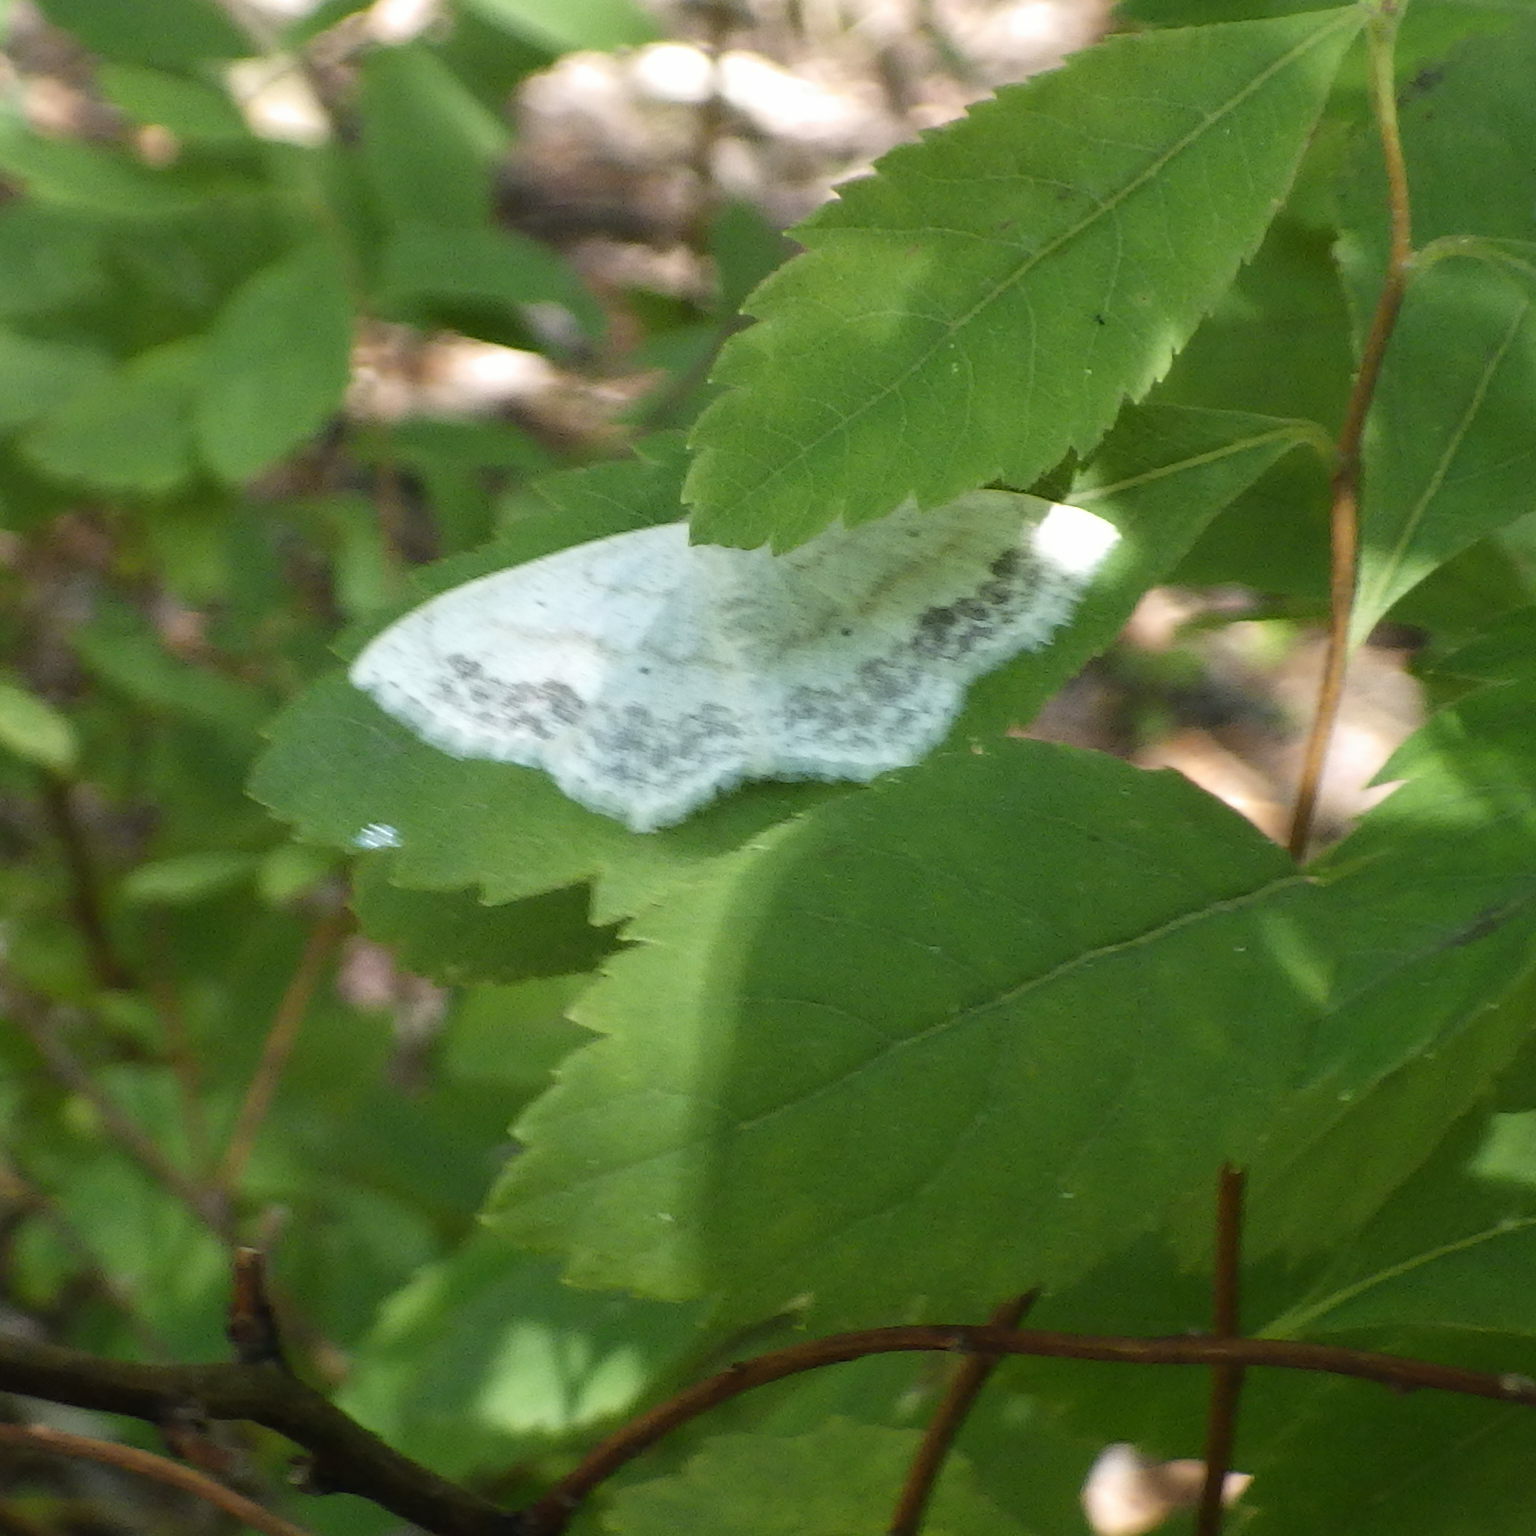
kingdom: Animalia
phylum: Arthropoda
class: Insecta
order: Lepidoptera
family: Geometridae
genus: Scopula
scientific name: Scopula limboundata
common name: Large lace border
